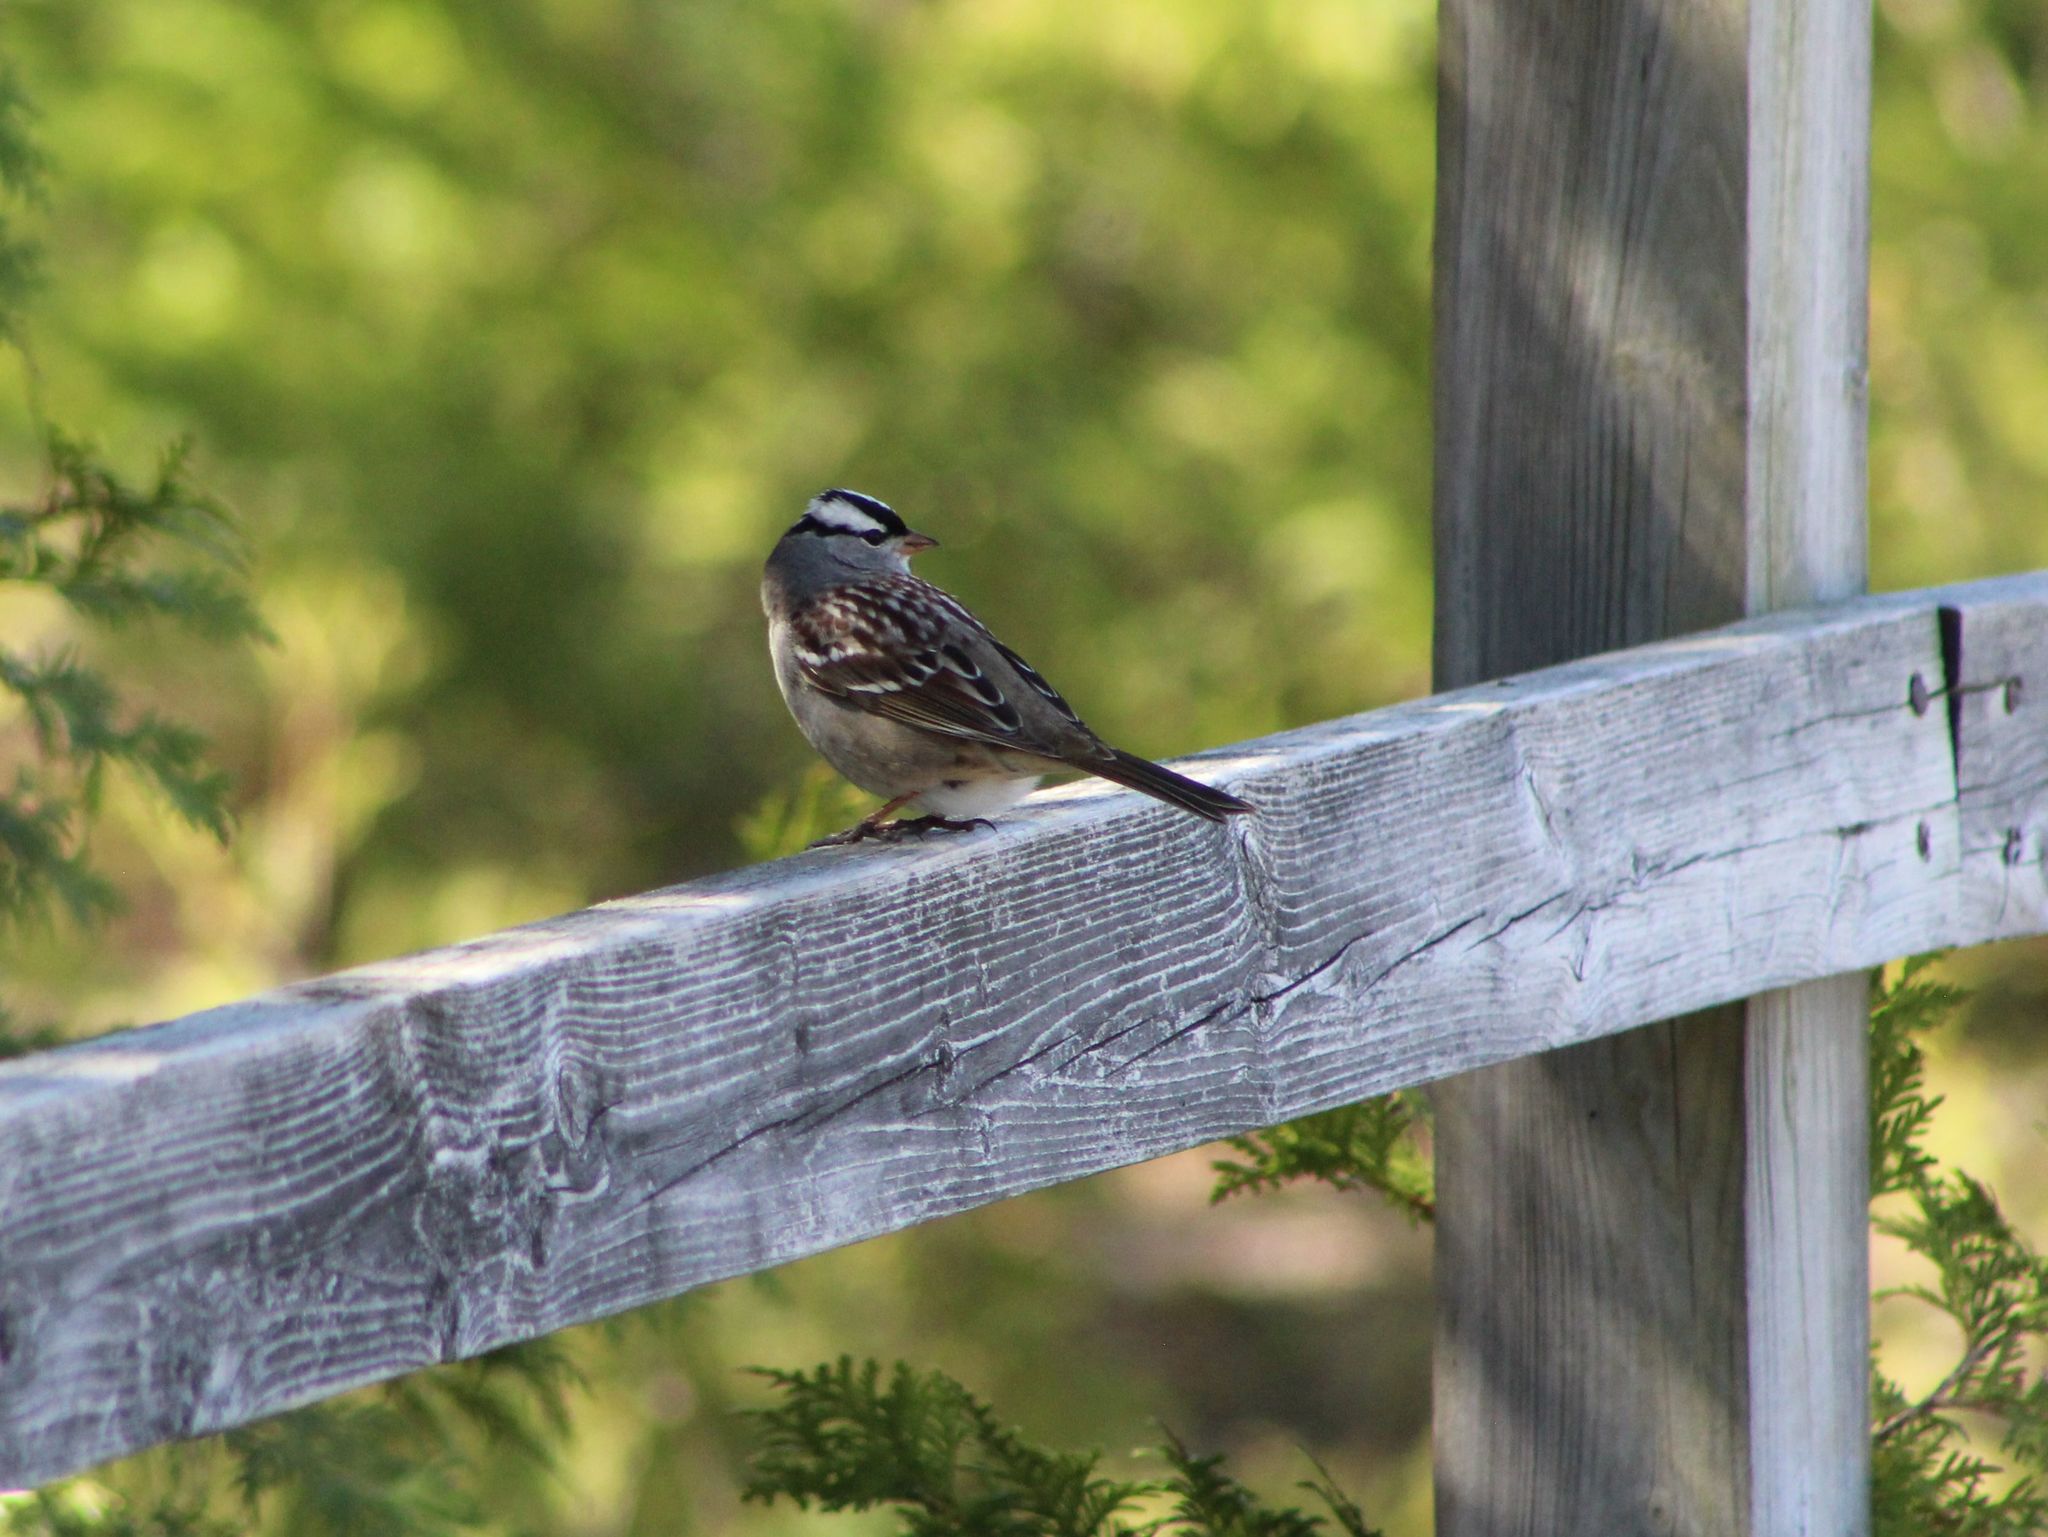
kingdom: Animalia
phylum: Chordata
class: Aves
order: Passeriformes
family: Passerellidae
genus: Zonotrichia
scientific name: Zonotrichia leucophrys
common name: White-crowned sparrow
